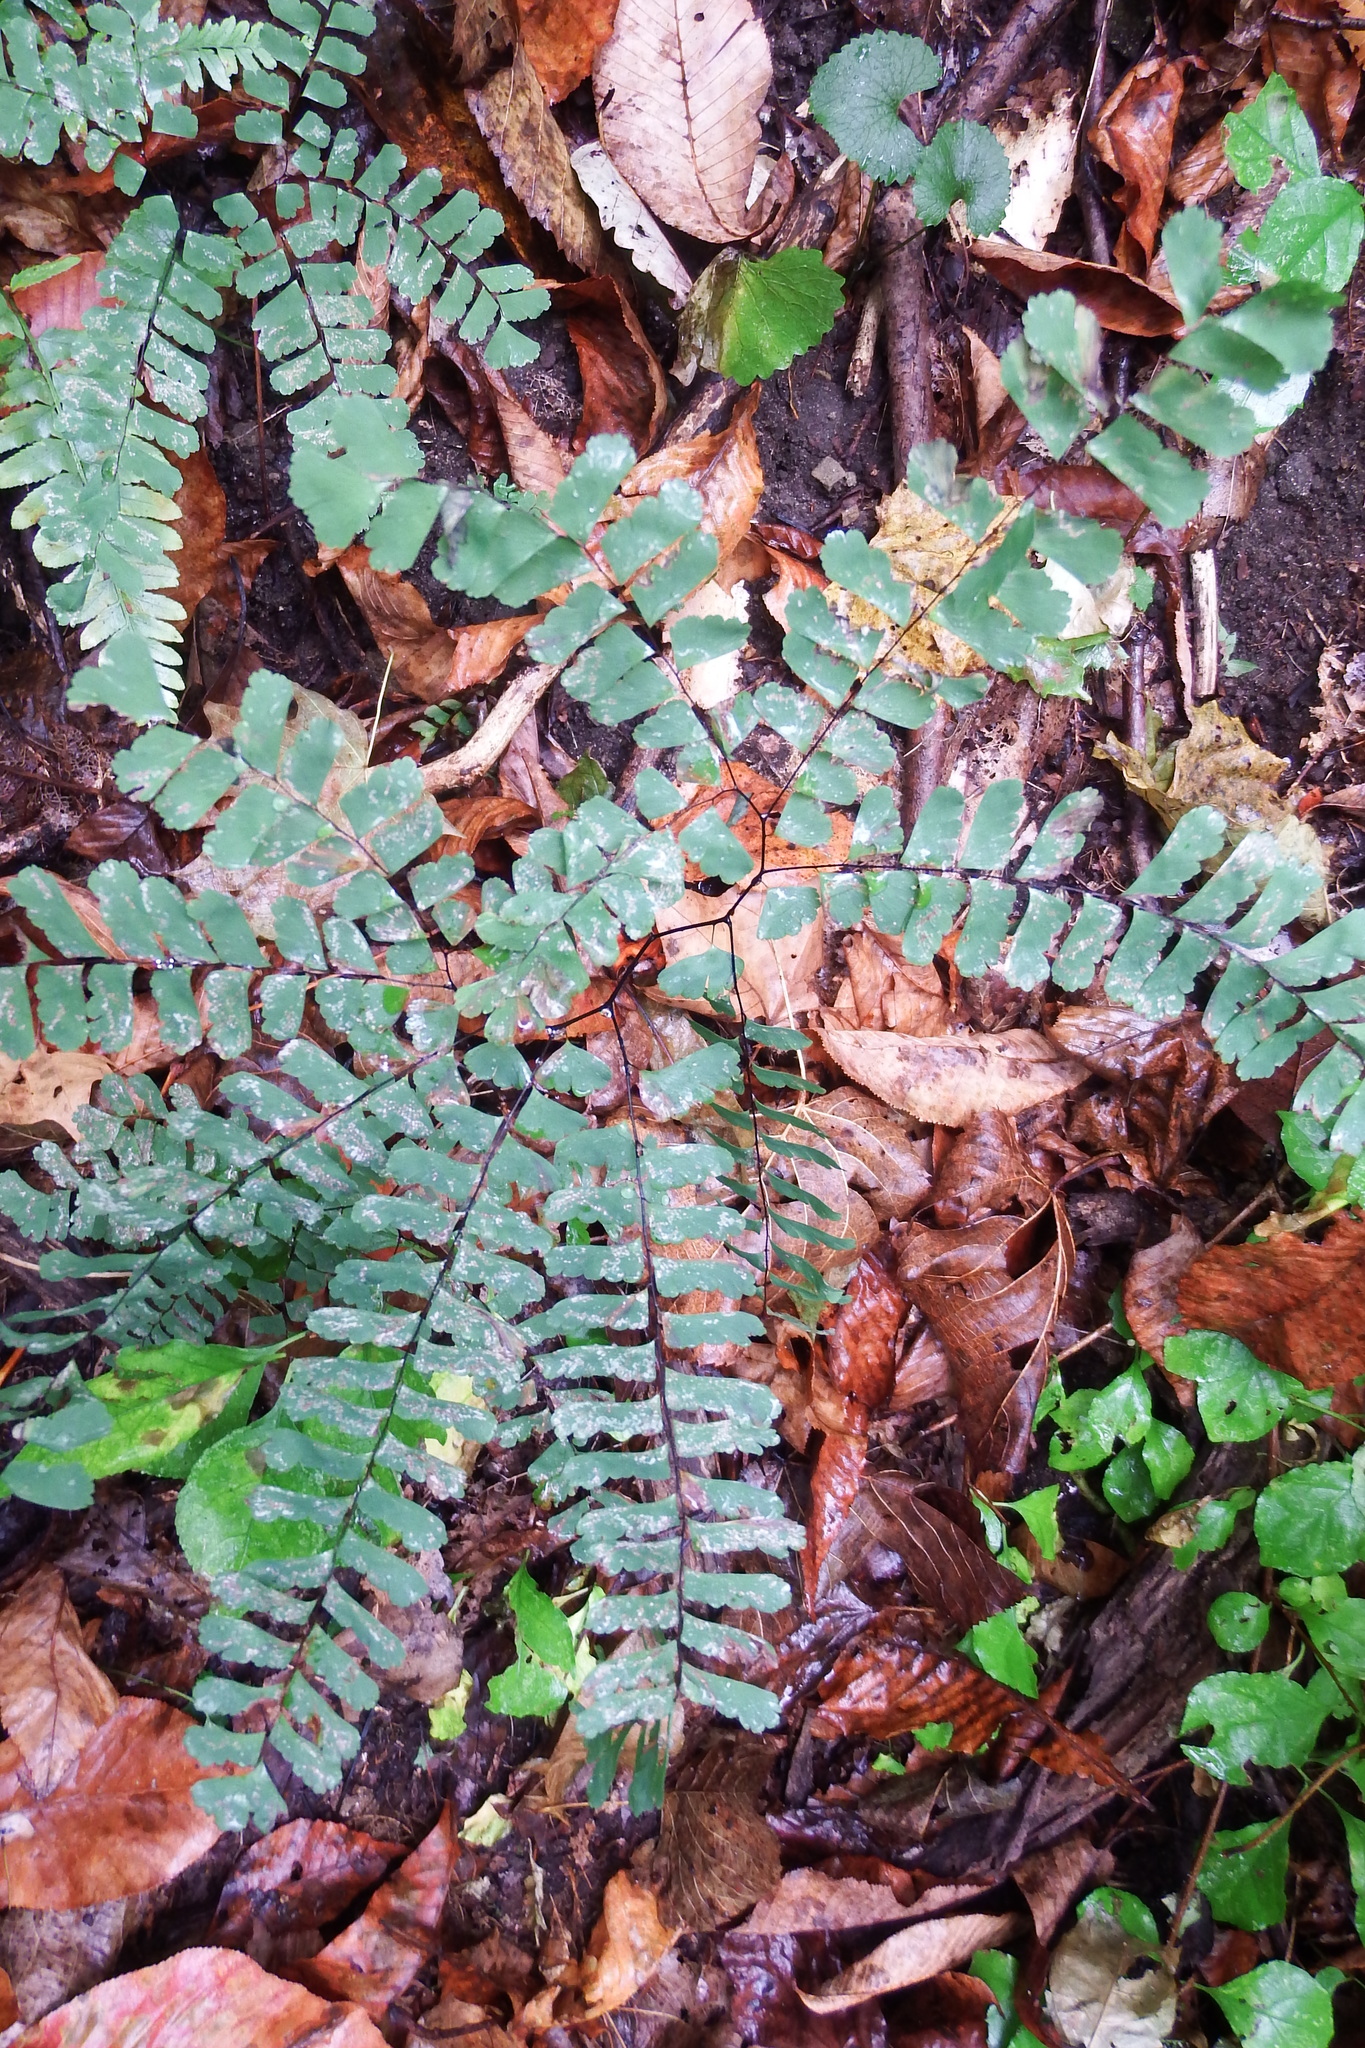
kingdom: Plantae
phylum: Tracheophyta
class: Polypodiopsida
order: Polypodiales
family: Pteridaceae
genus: Adiantum
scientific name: Adiantum pedatum
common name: Five-finger fern
